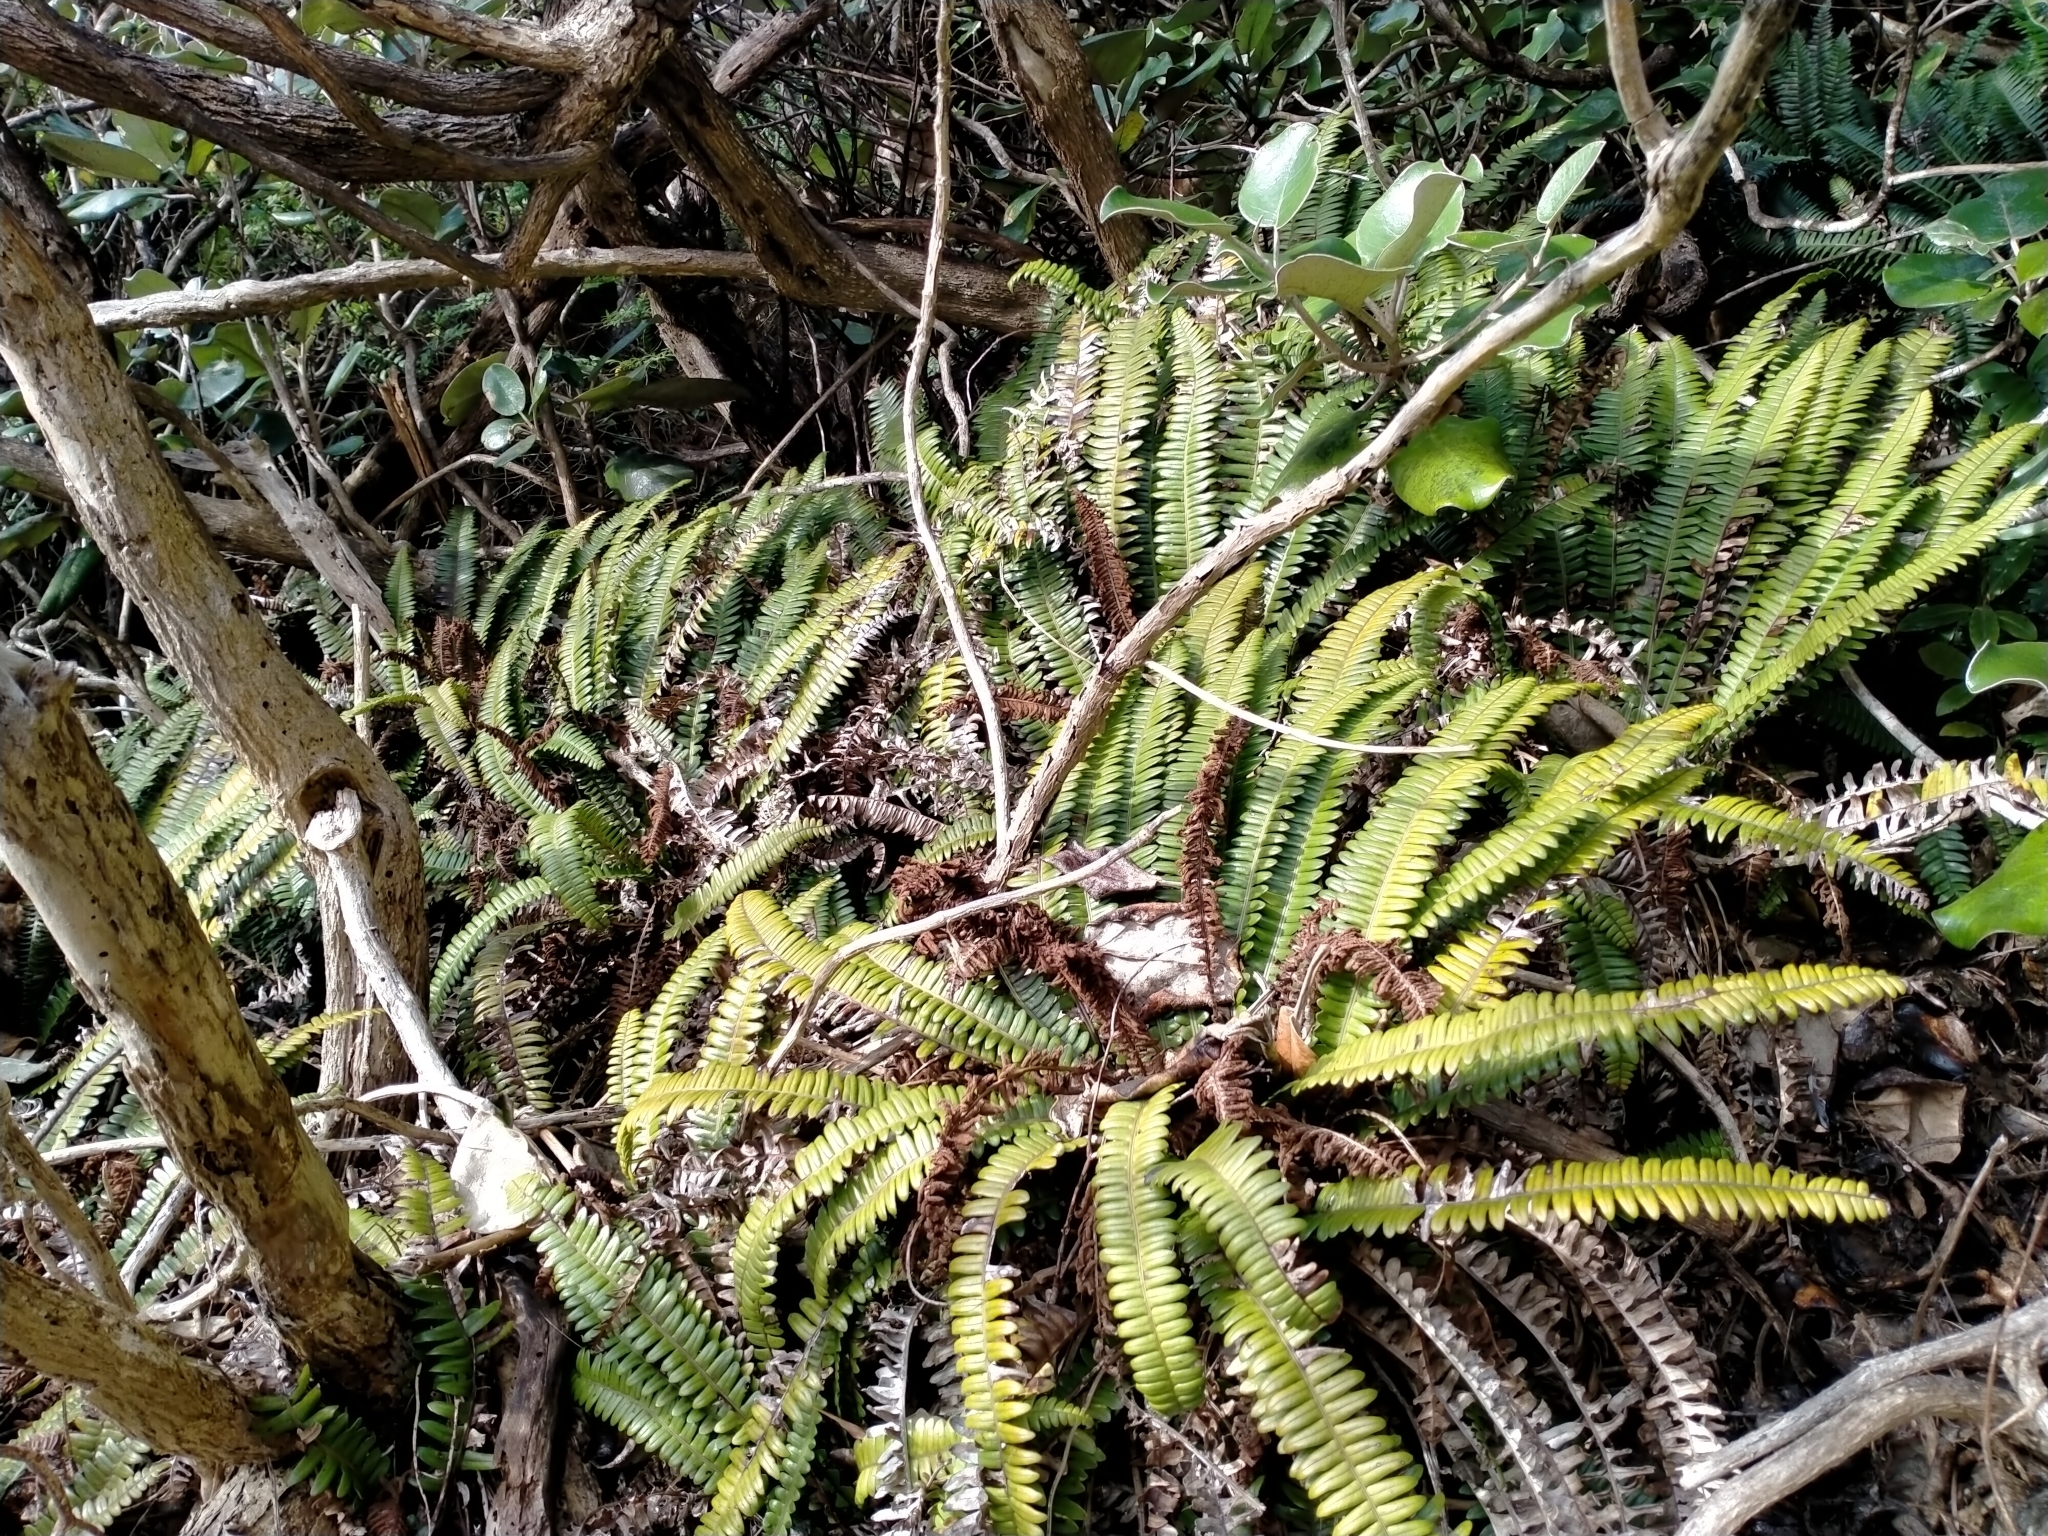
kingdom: Plantae
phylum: Tracheophyta
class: Polypodiopsida
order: Polypodiales
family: Blechnaceae
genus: Austroblechnum
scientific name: Austroblechnum durum
